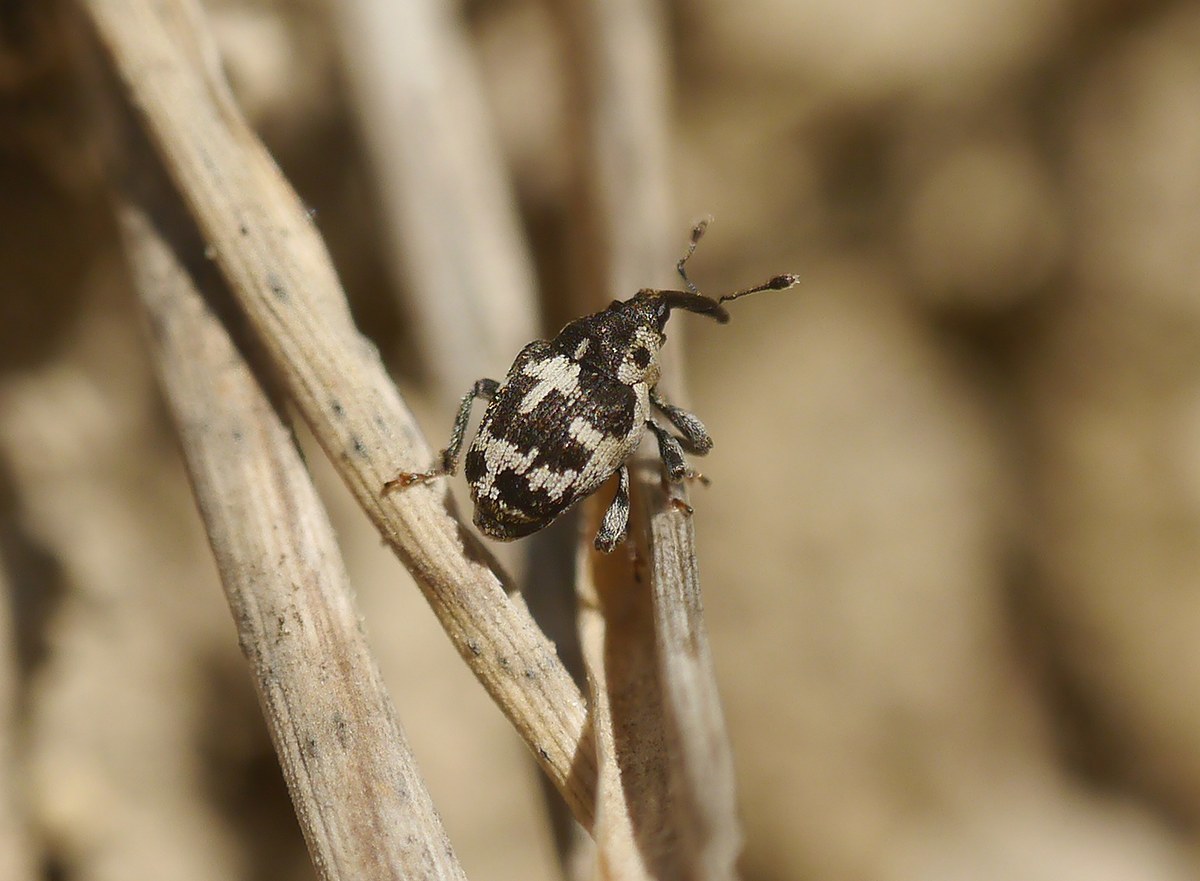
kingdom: Animalia
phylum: Arthropoda
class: Insecta
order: Coleoptera
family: Curculionidae
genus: Thamiocolus
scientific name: Thamiocolus sinapis
